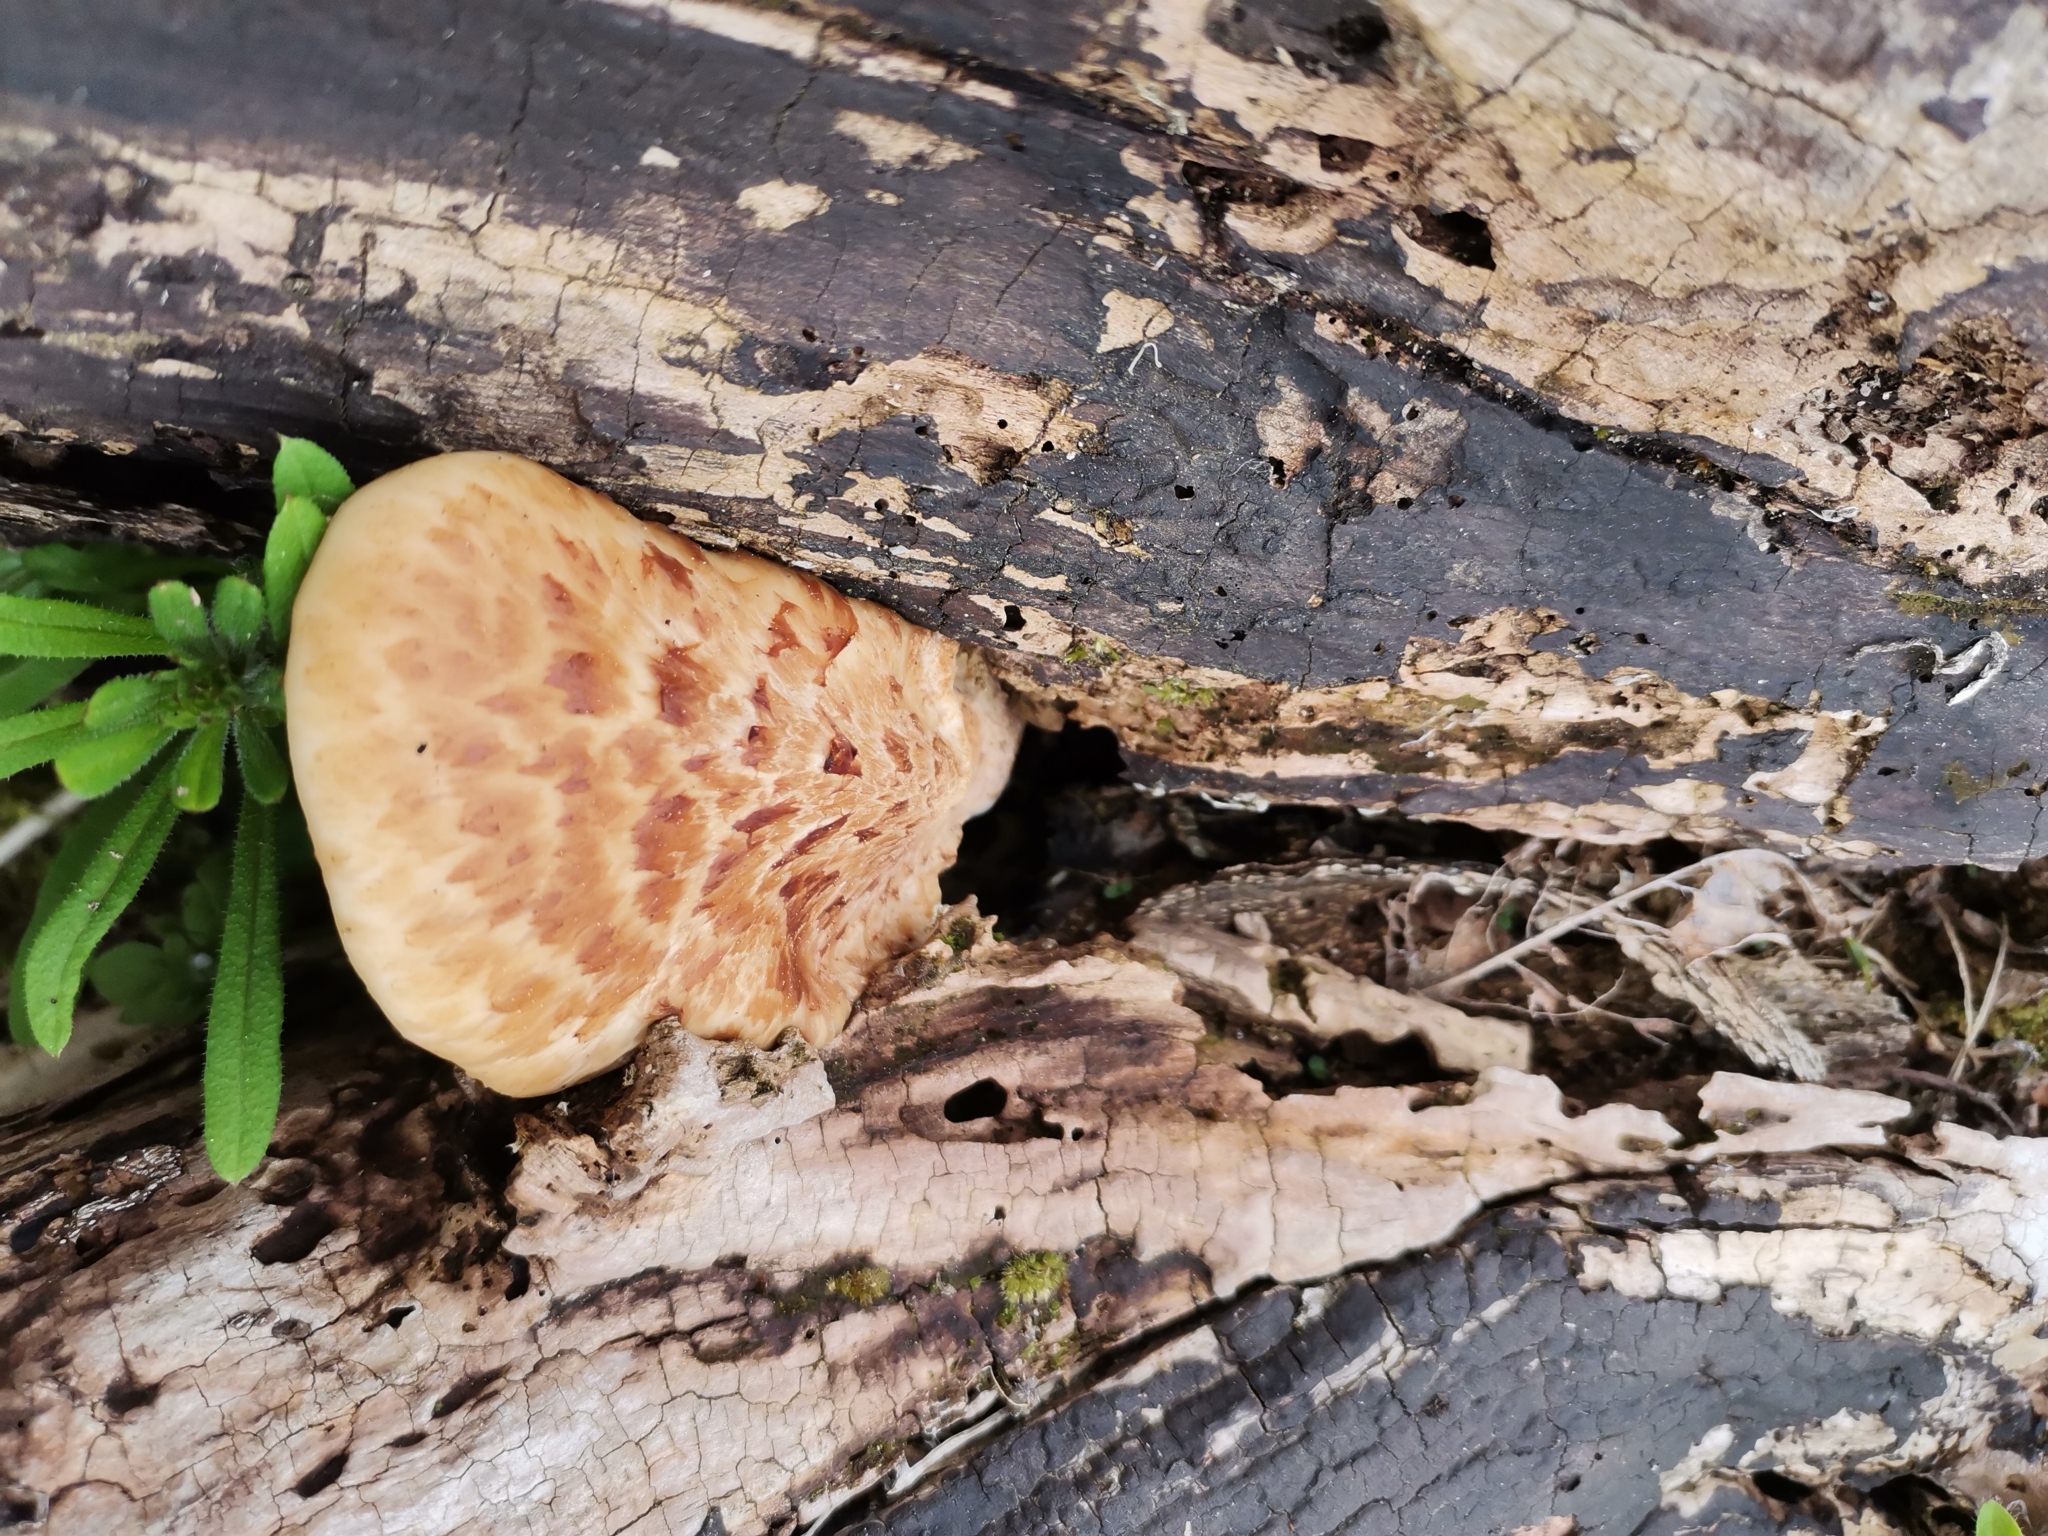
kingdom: Fungi
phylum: Basidiomycota
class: Agaricomycetes
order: Polyporales
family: Polyporaceae
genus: Cerioporus
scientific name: Cerioporus squamosus
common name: Dryad's saddle
